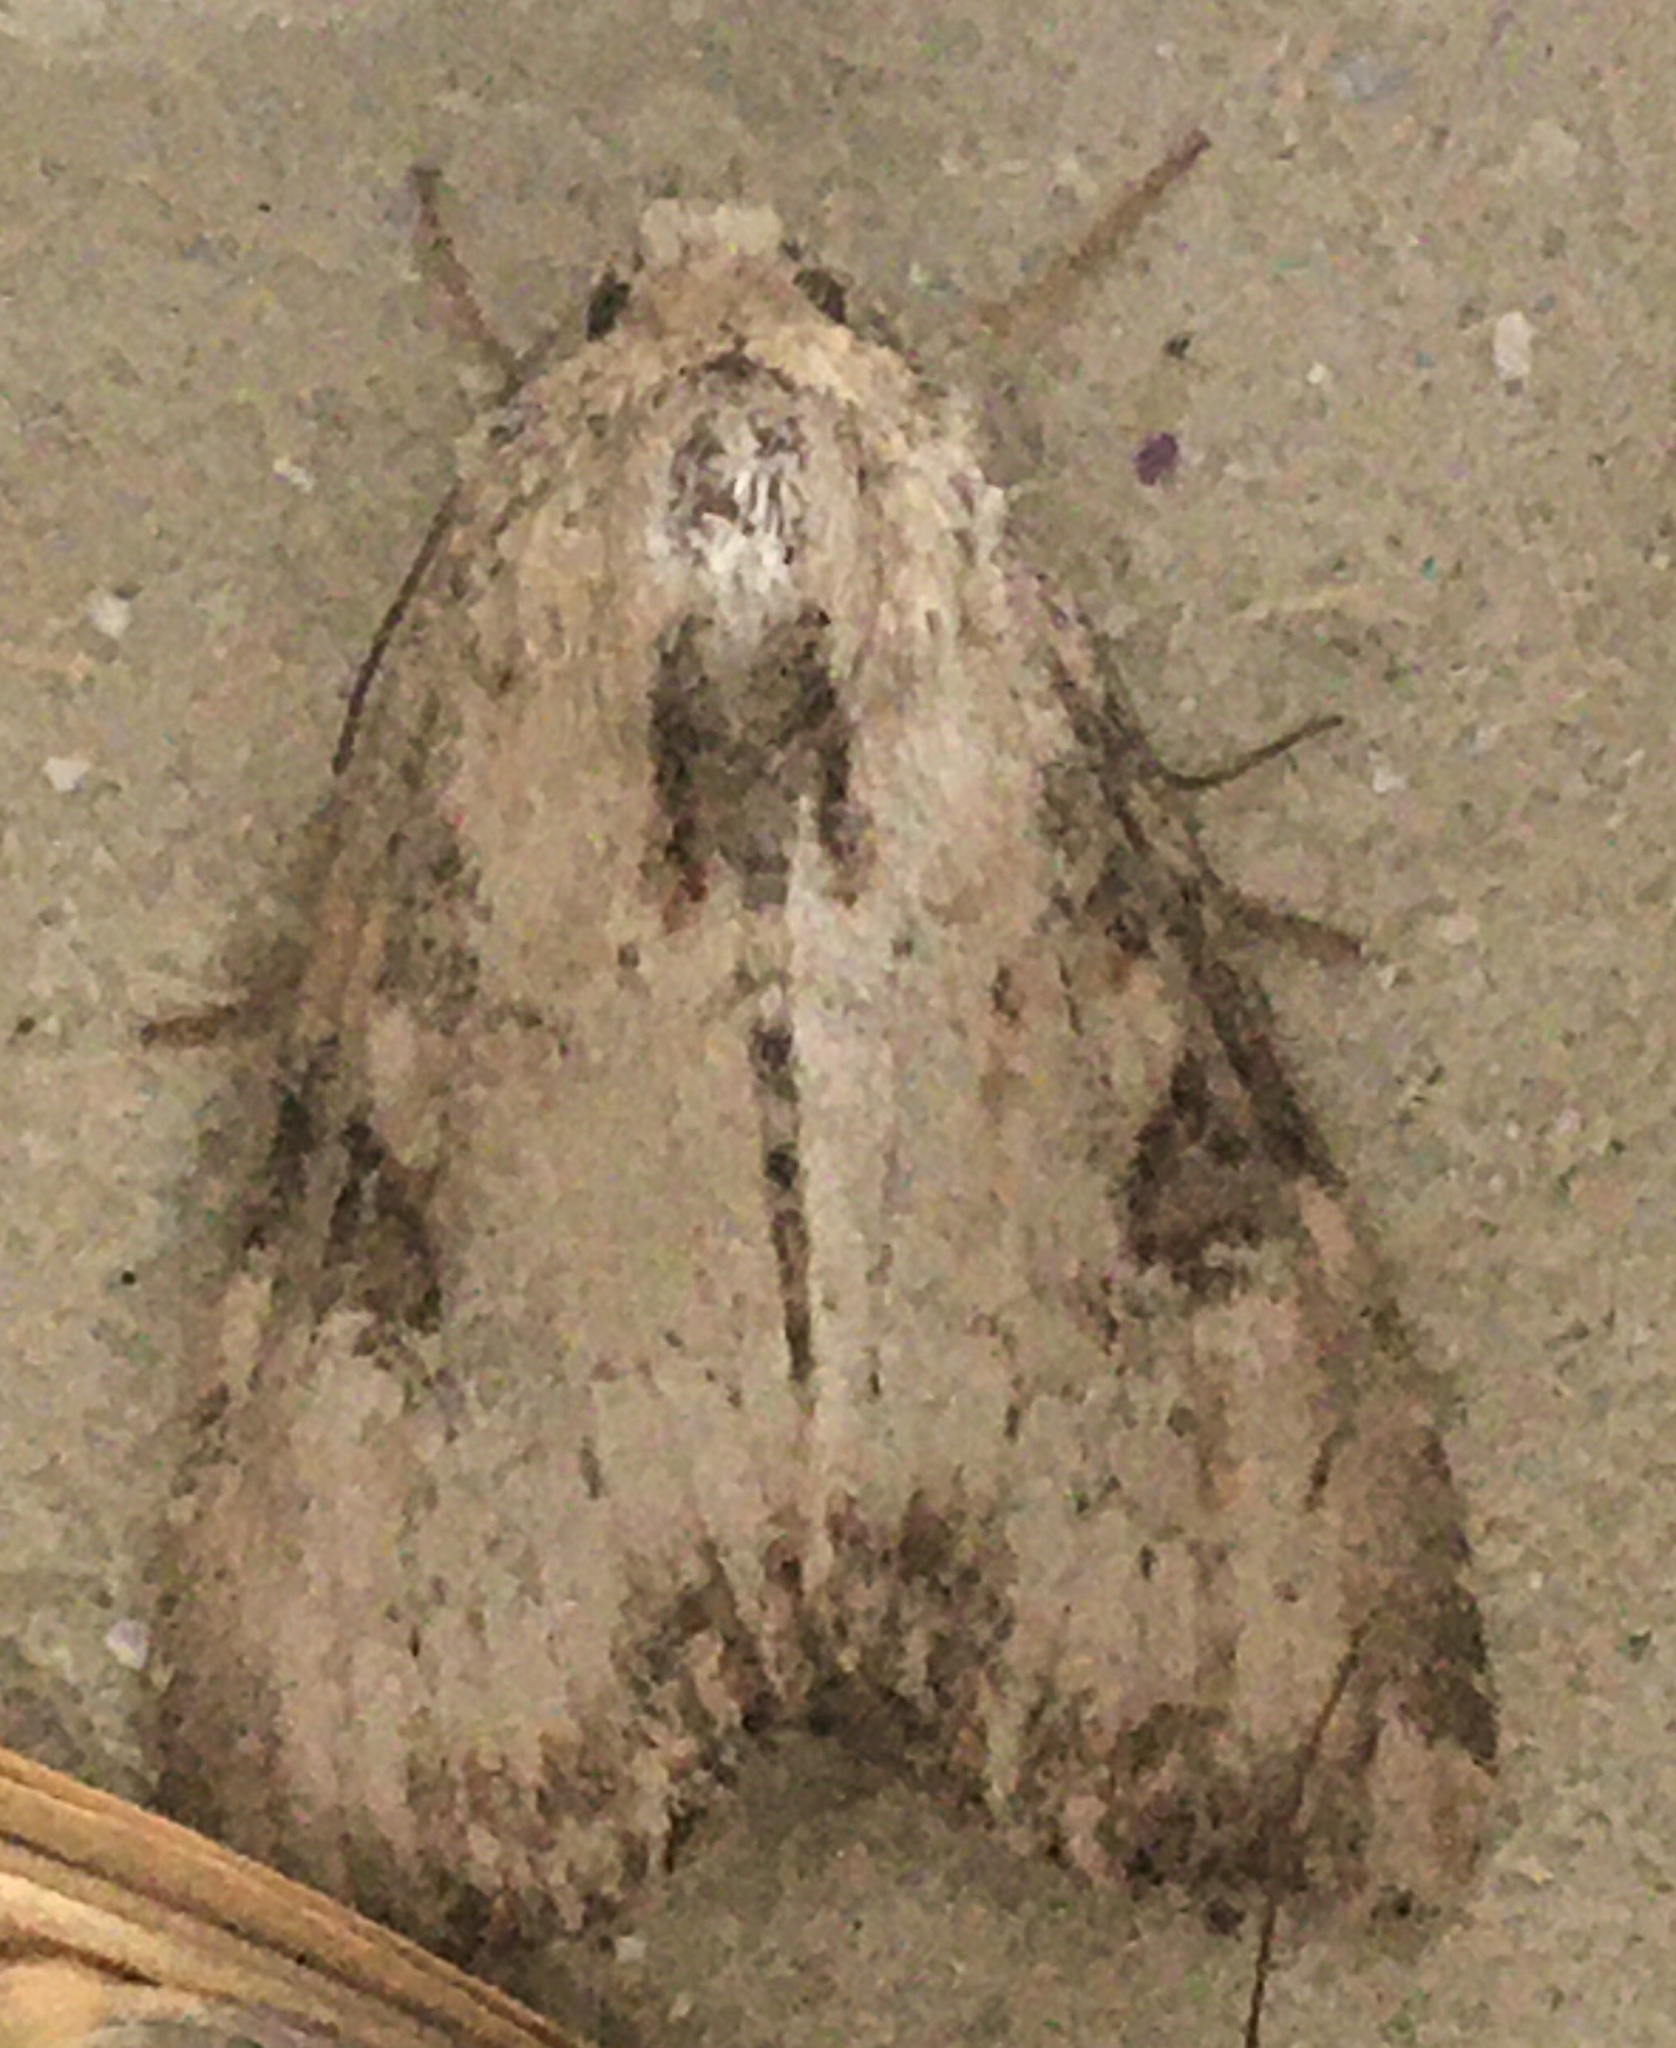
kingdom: Animalia
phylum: Arthropoda
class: Insecta
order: Lepidoptera
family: Noctuidae
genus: Loscopia
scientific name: Loscopia scolopacina
